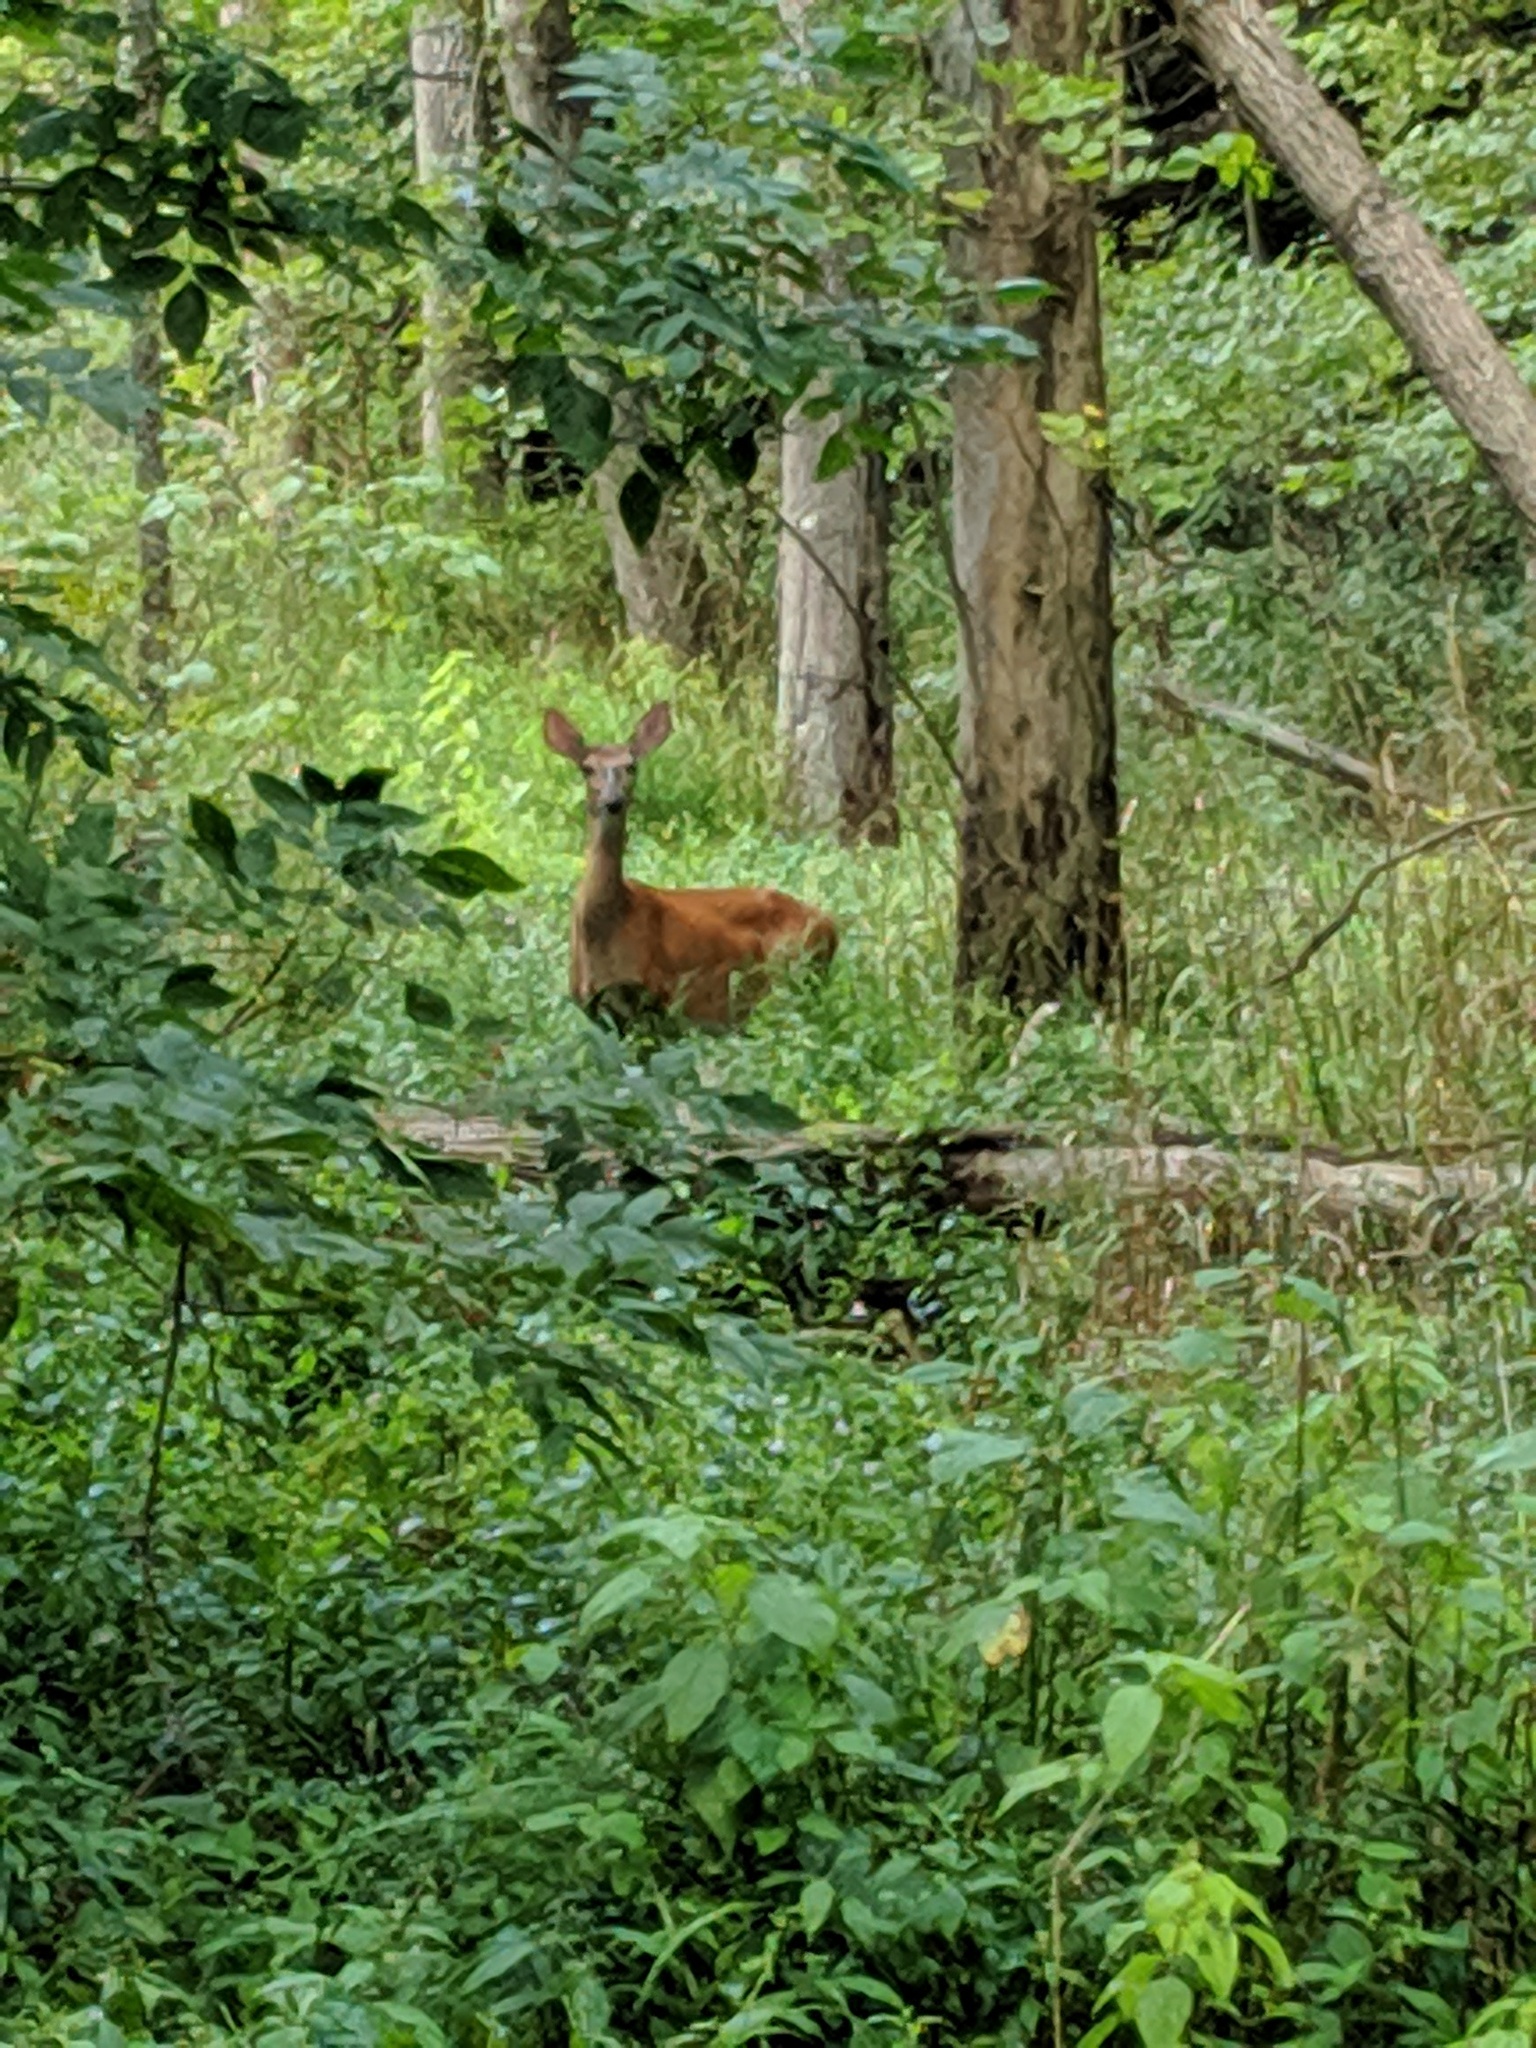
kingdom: Animalia
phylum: Chordata
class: Mammalia
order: Artiodactyla
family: Cervidae
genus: Odocoileus
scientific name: Odocoileus virginianus
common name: White-tailed deer
